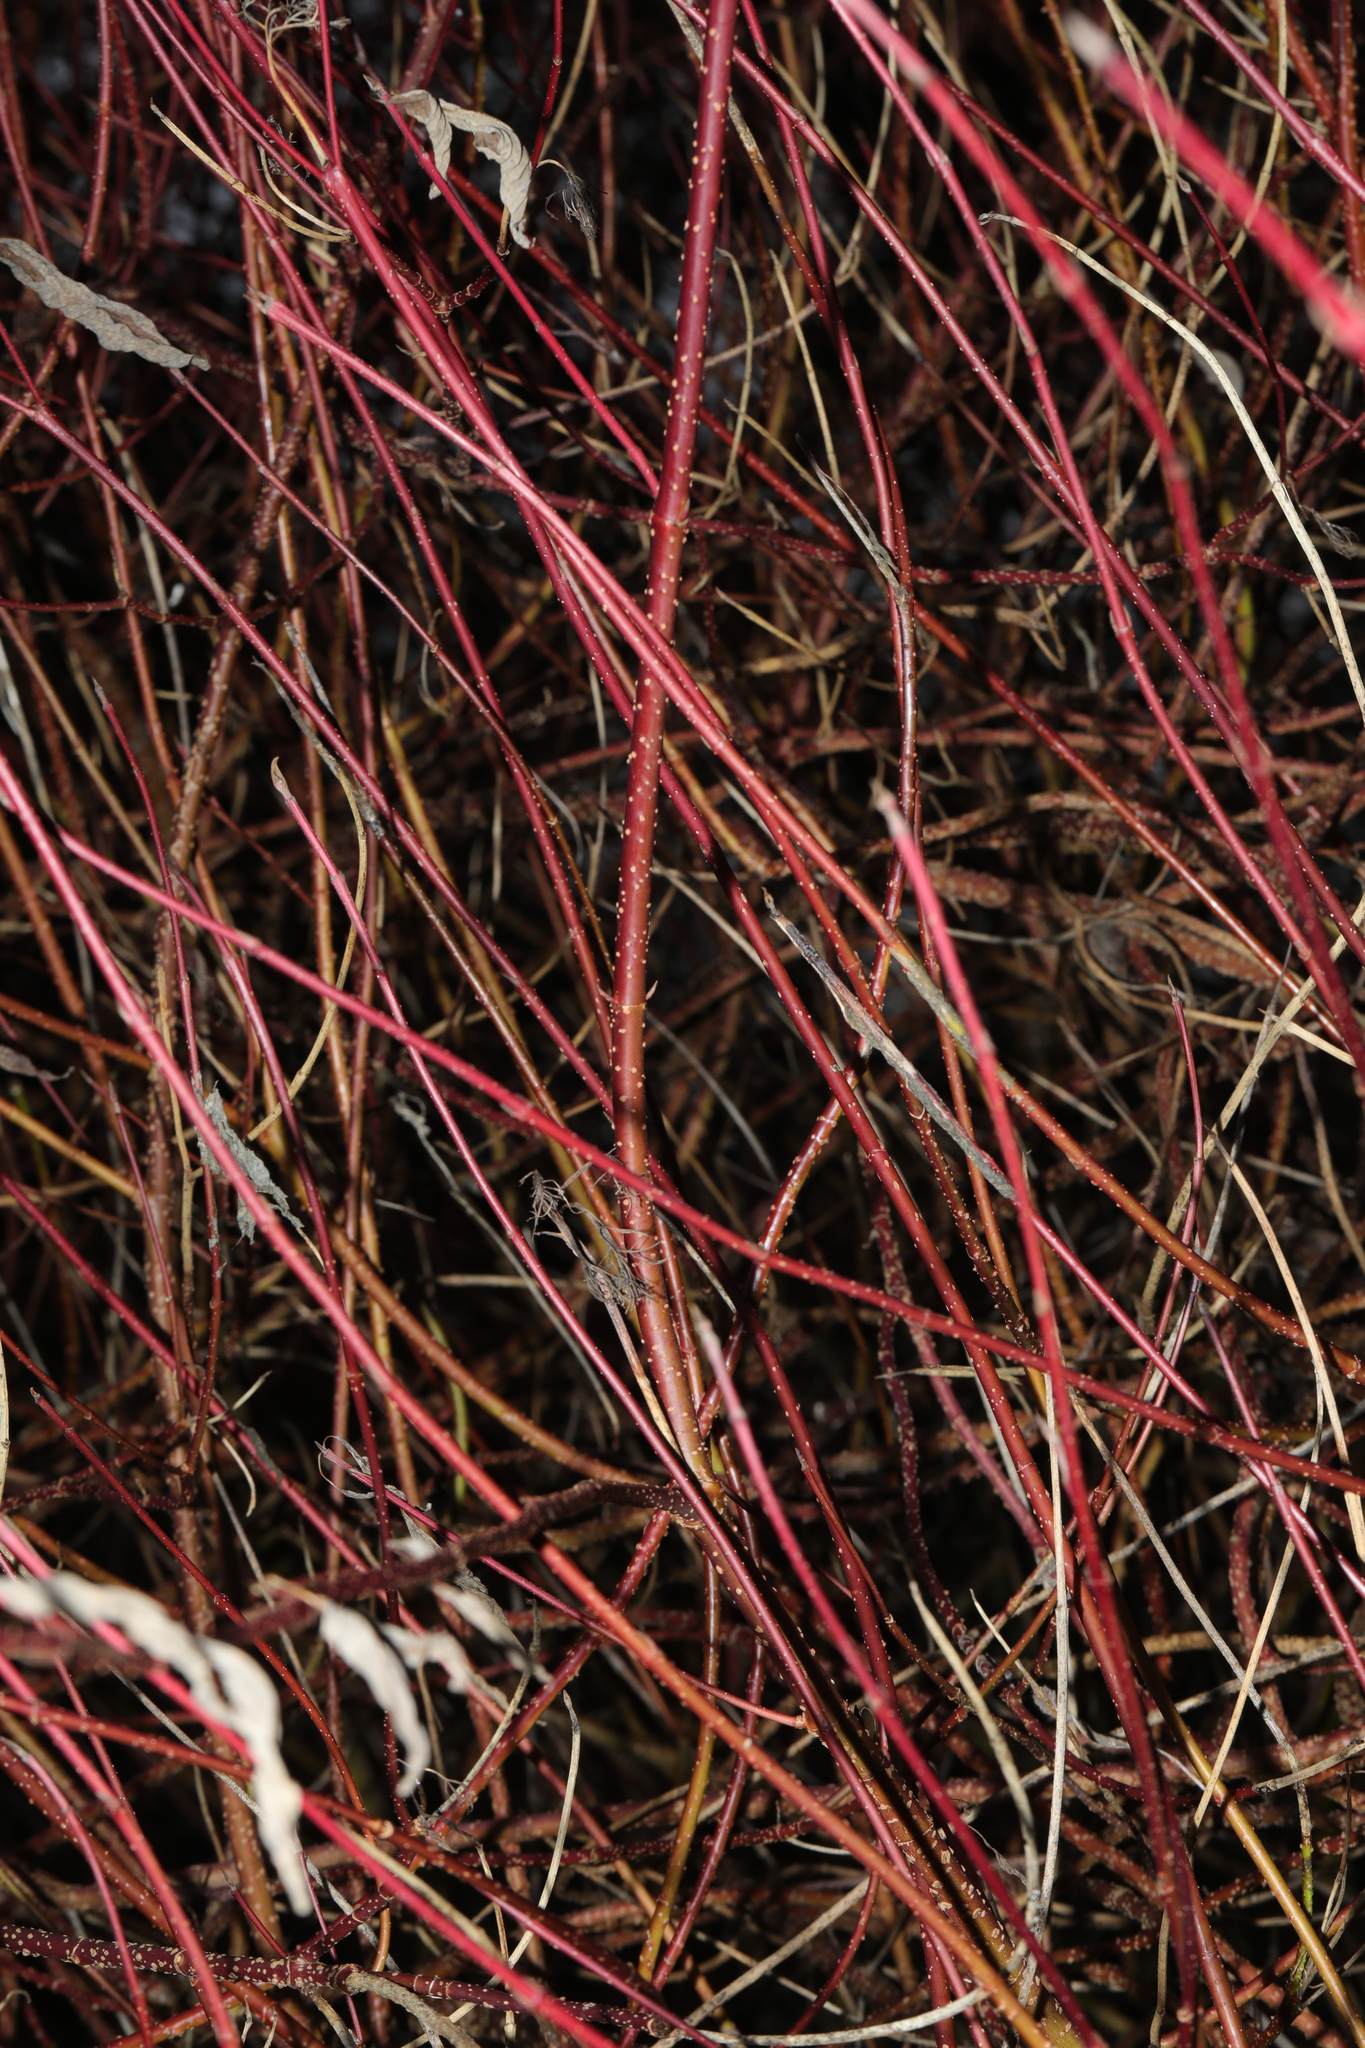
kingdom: Plantae
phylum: Tracheophyta
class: Magnoliopsida
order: Cornales
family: Cornaceae
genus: Cornus
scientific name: Cornus alba
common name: White dogwood
